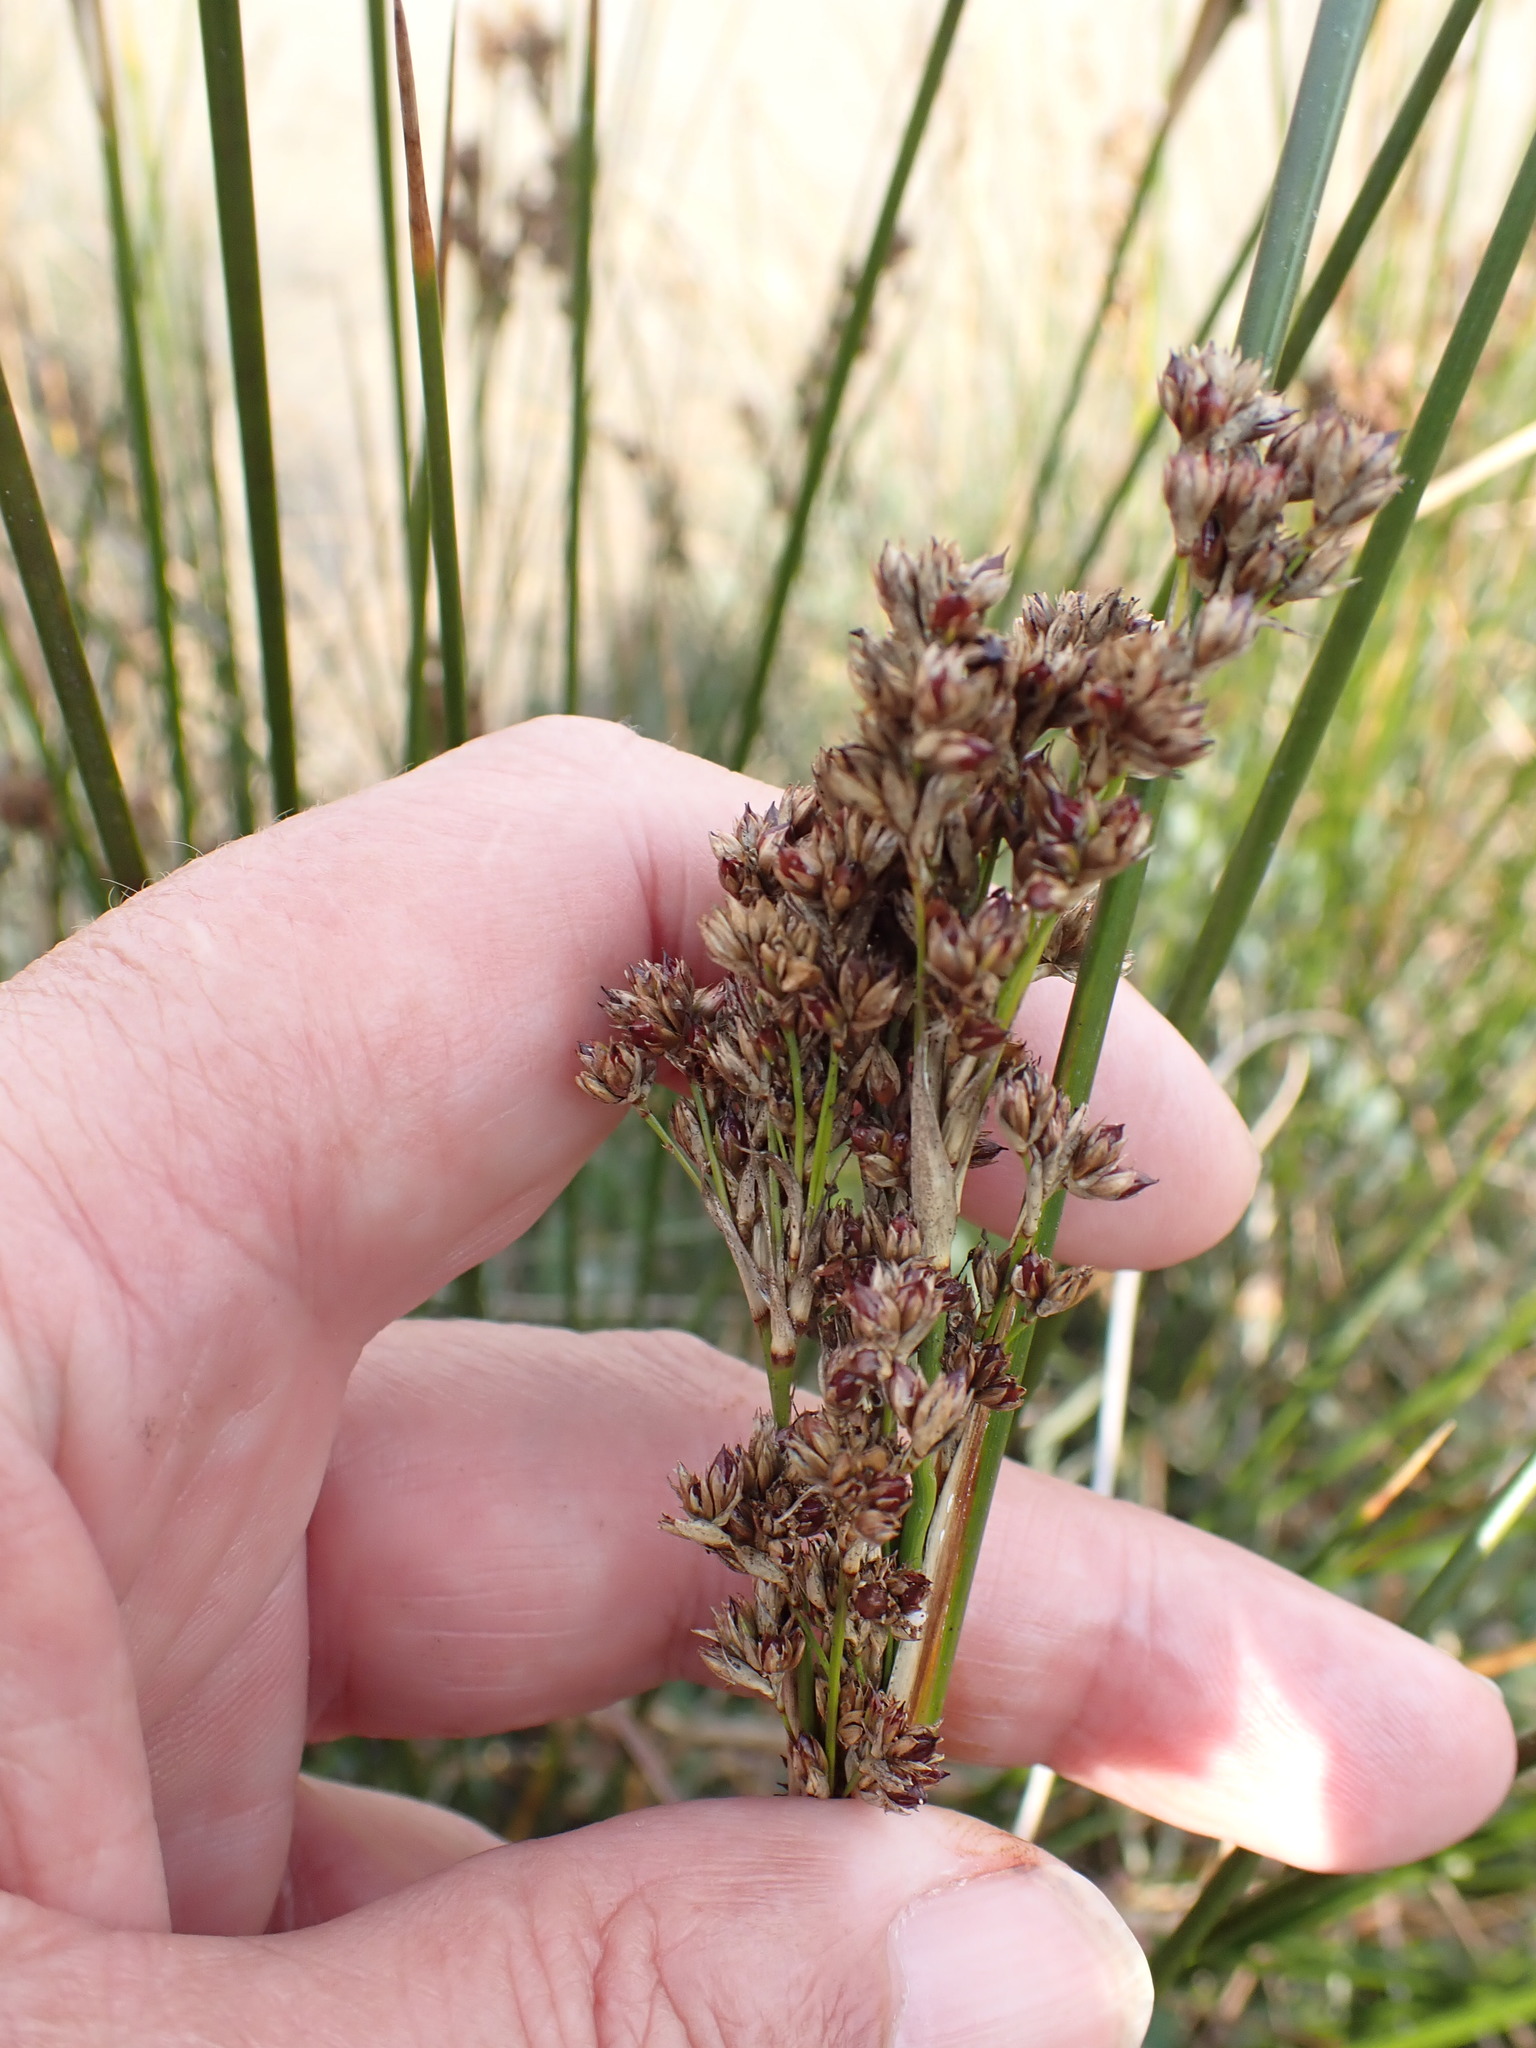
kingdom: Plantae
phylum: Tracheophyta
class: Liliopsida
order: Poales
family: Juncaceae
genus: Juncus
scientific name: Juncus maritimus
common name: Sea rush
